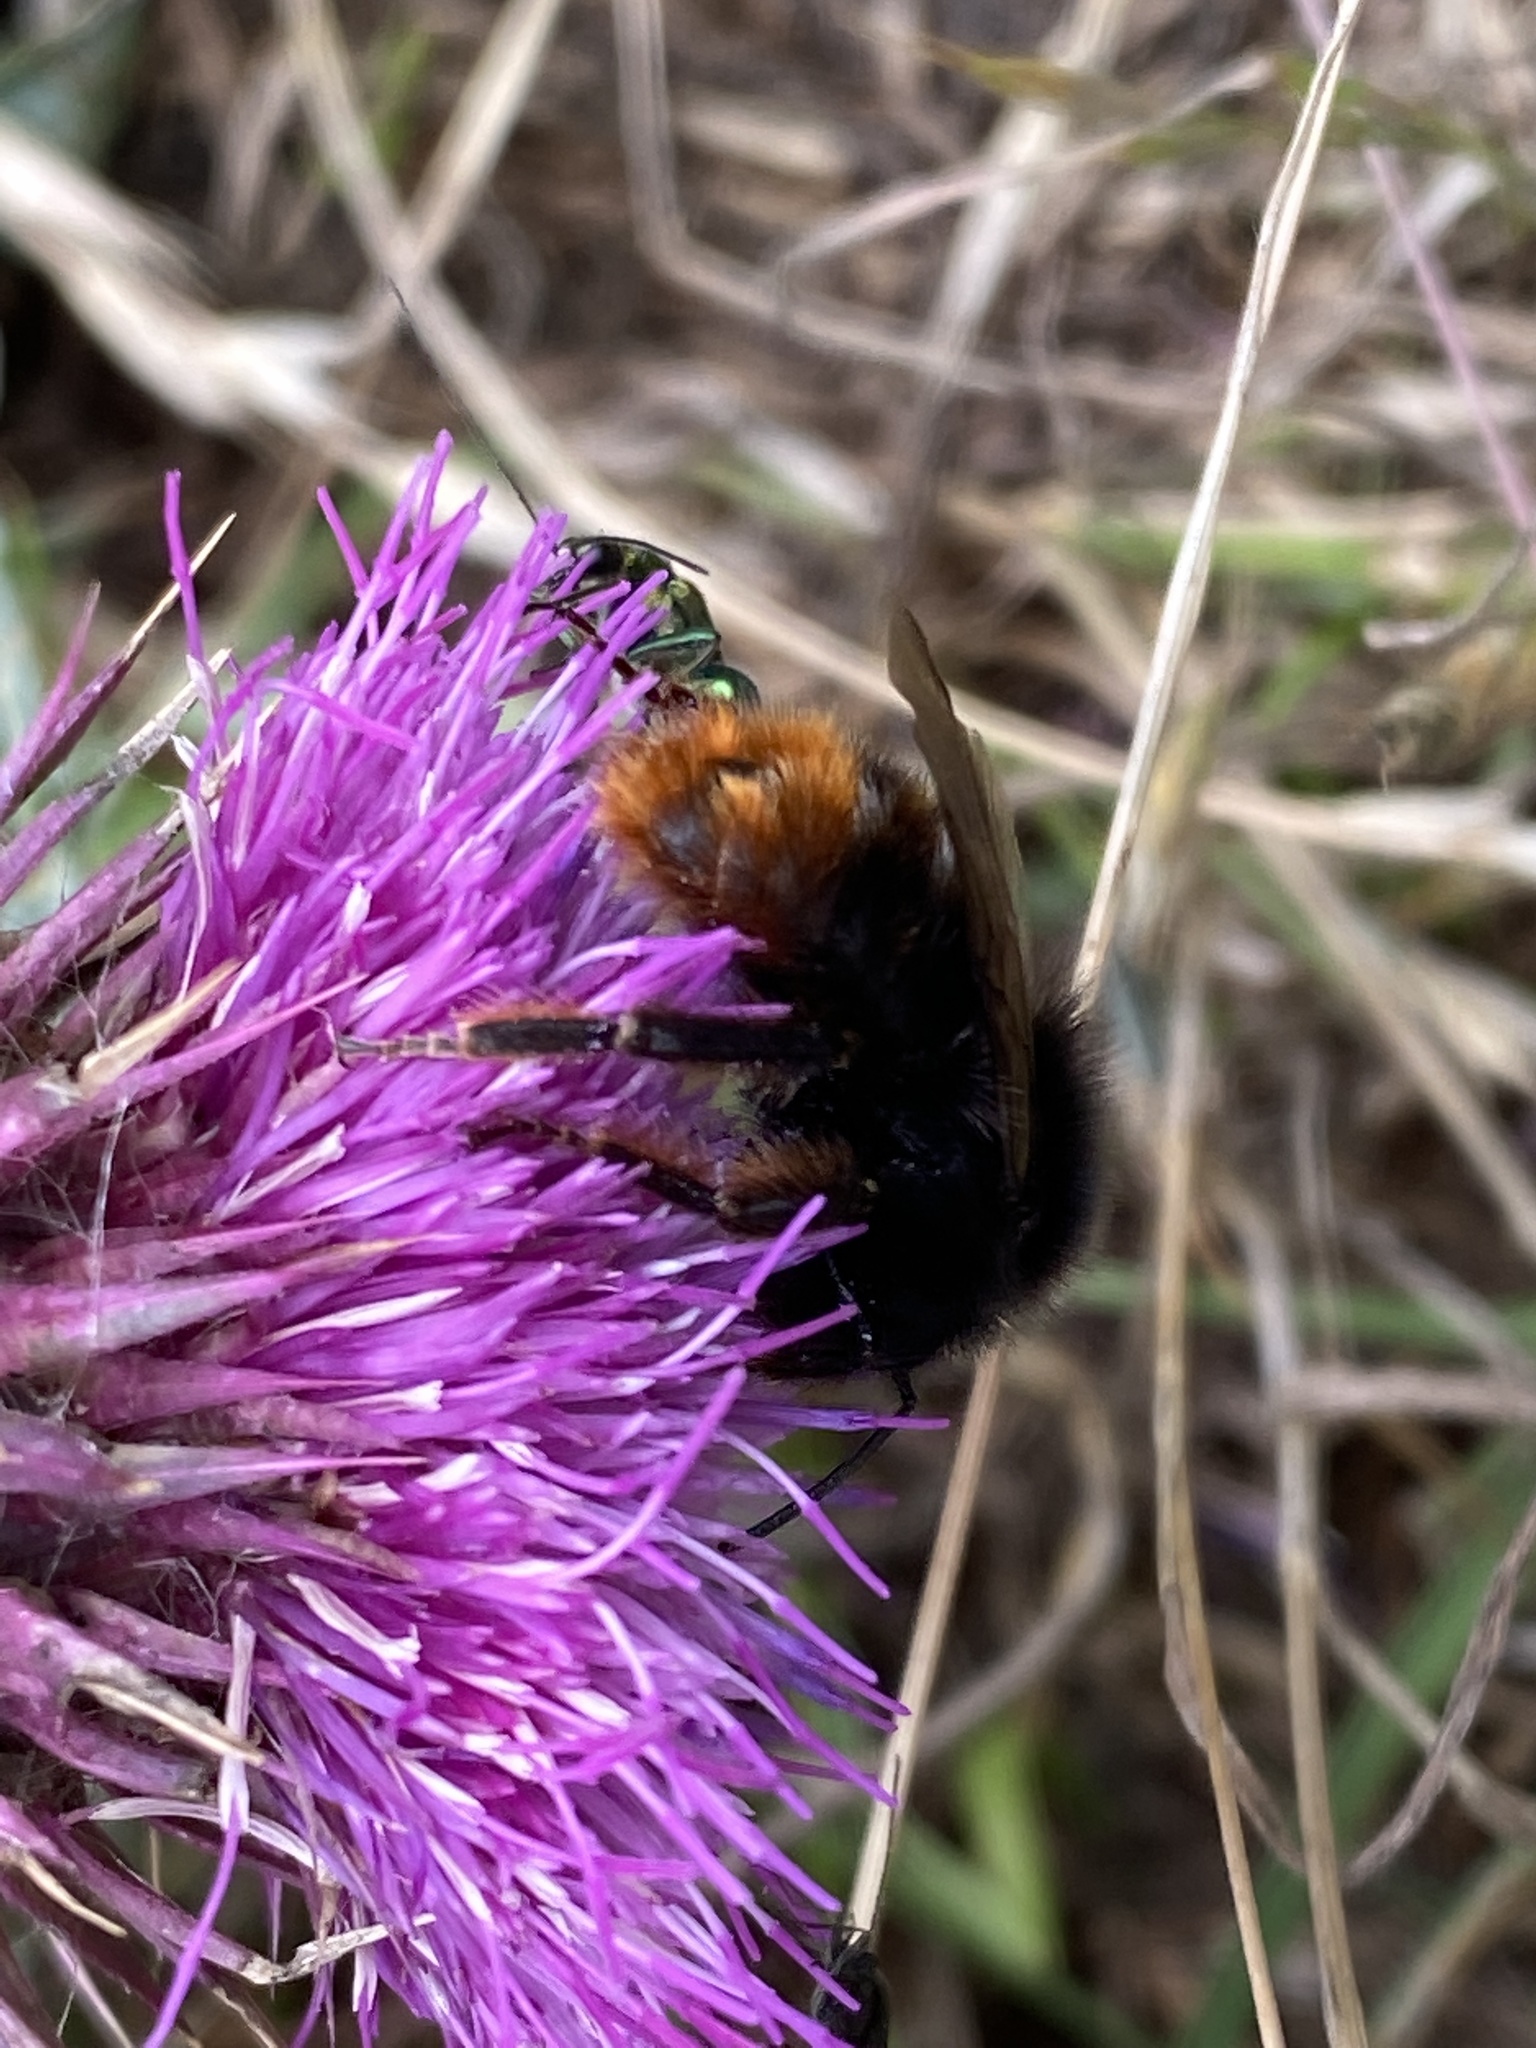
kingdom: Animalia
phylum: Arthropoda
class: Insecta
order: Hymenoptera
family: Apidae
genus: Bombus
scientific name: Bombus lapidarius
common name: Large red-tailed humble-bee
